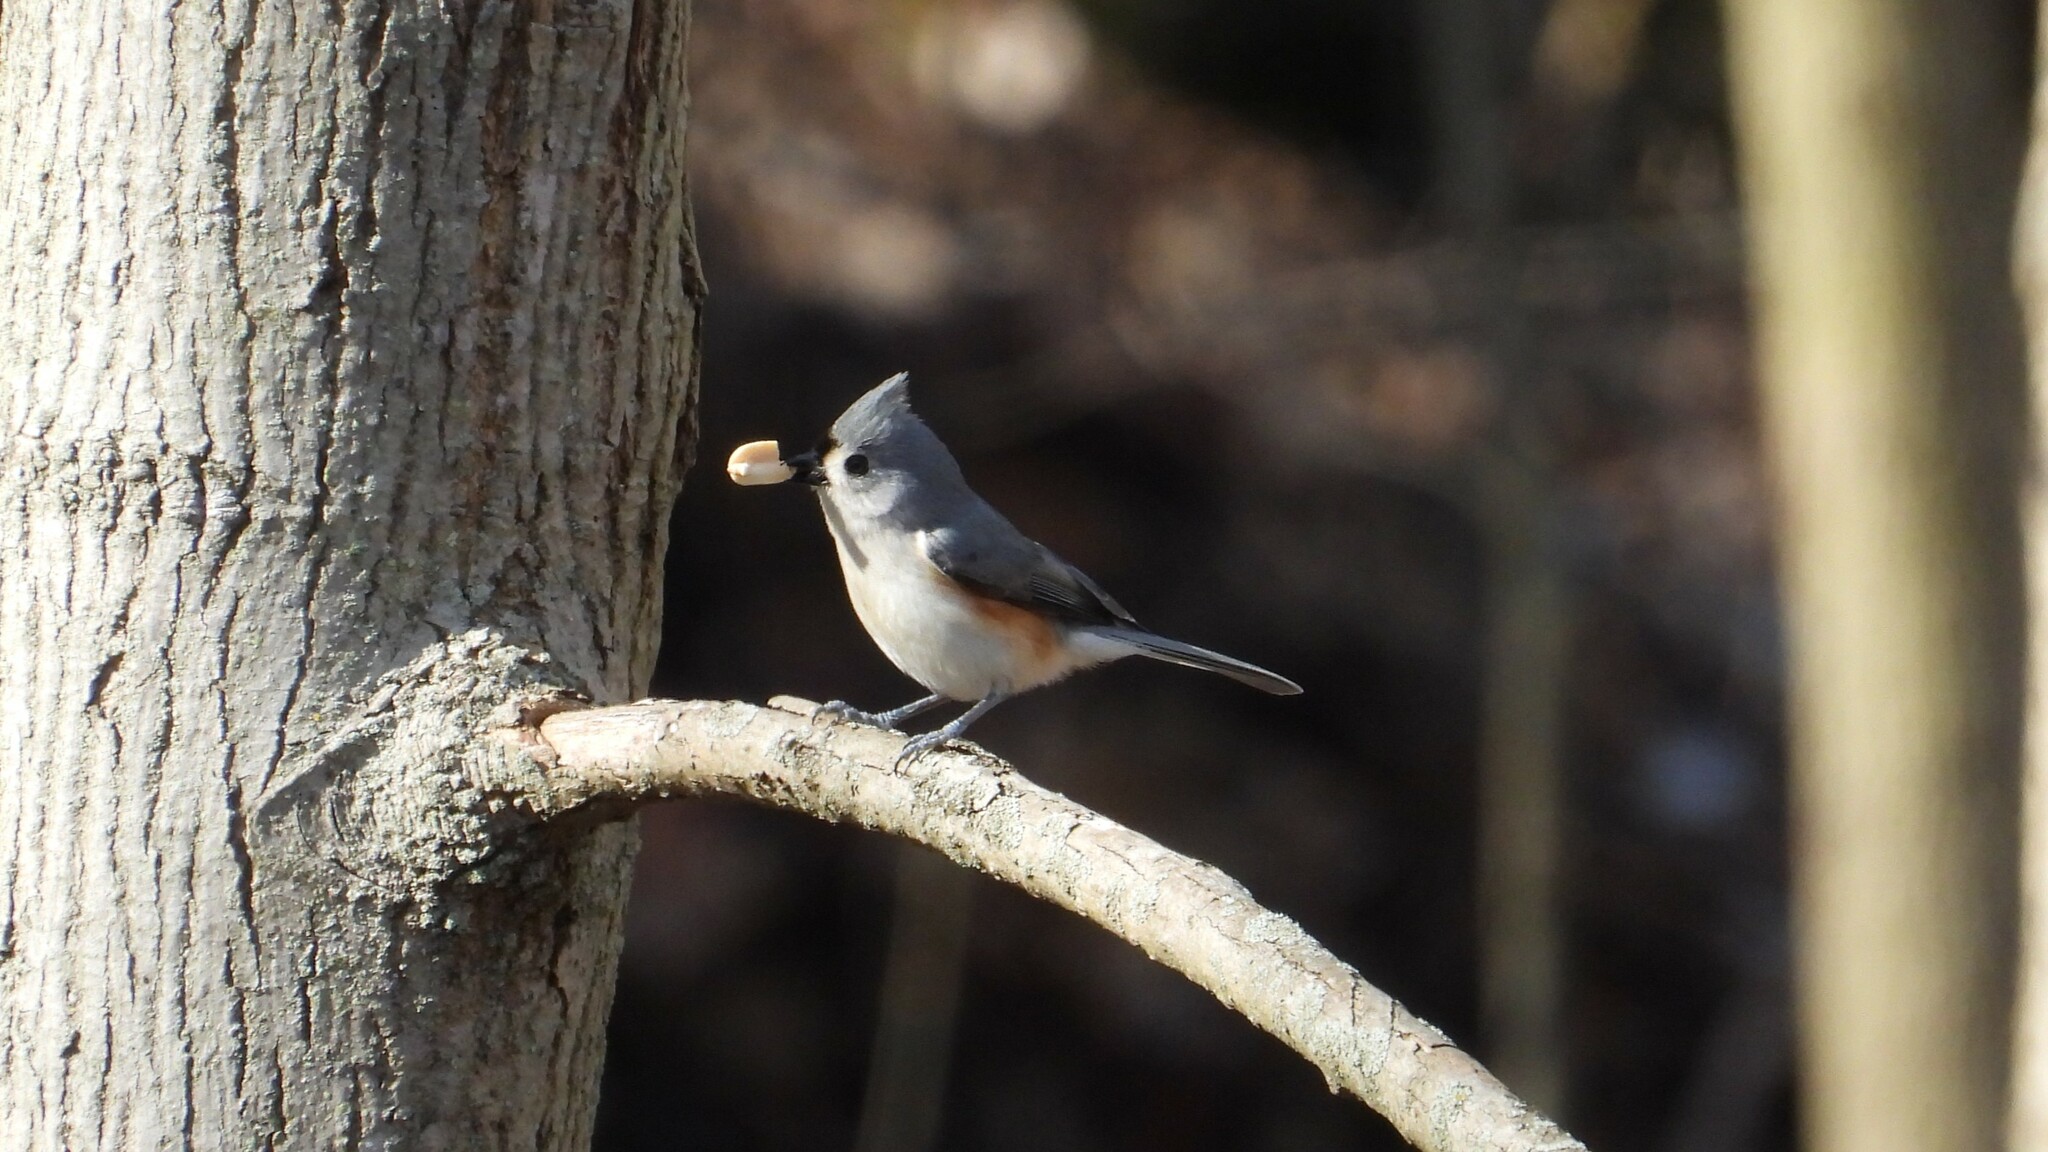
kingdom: Animalia
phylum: Chordata
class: Aves
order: Passeriformes
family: Paridae
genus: Baeolophus
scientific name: Baeolophus bicolor
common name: Tufted titmouse
